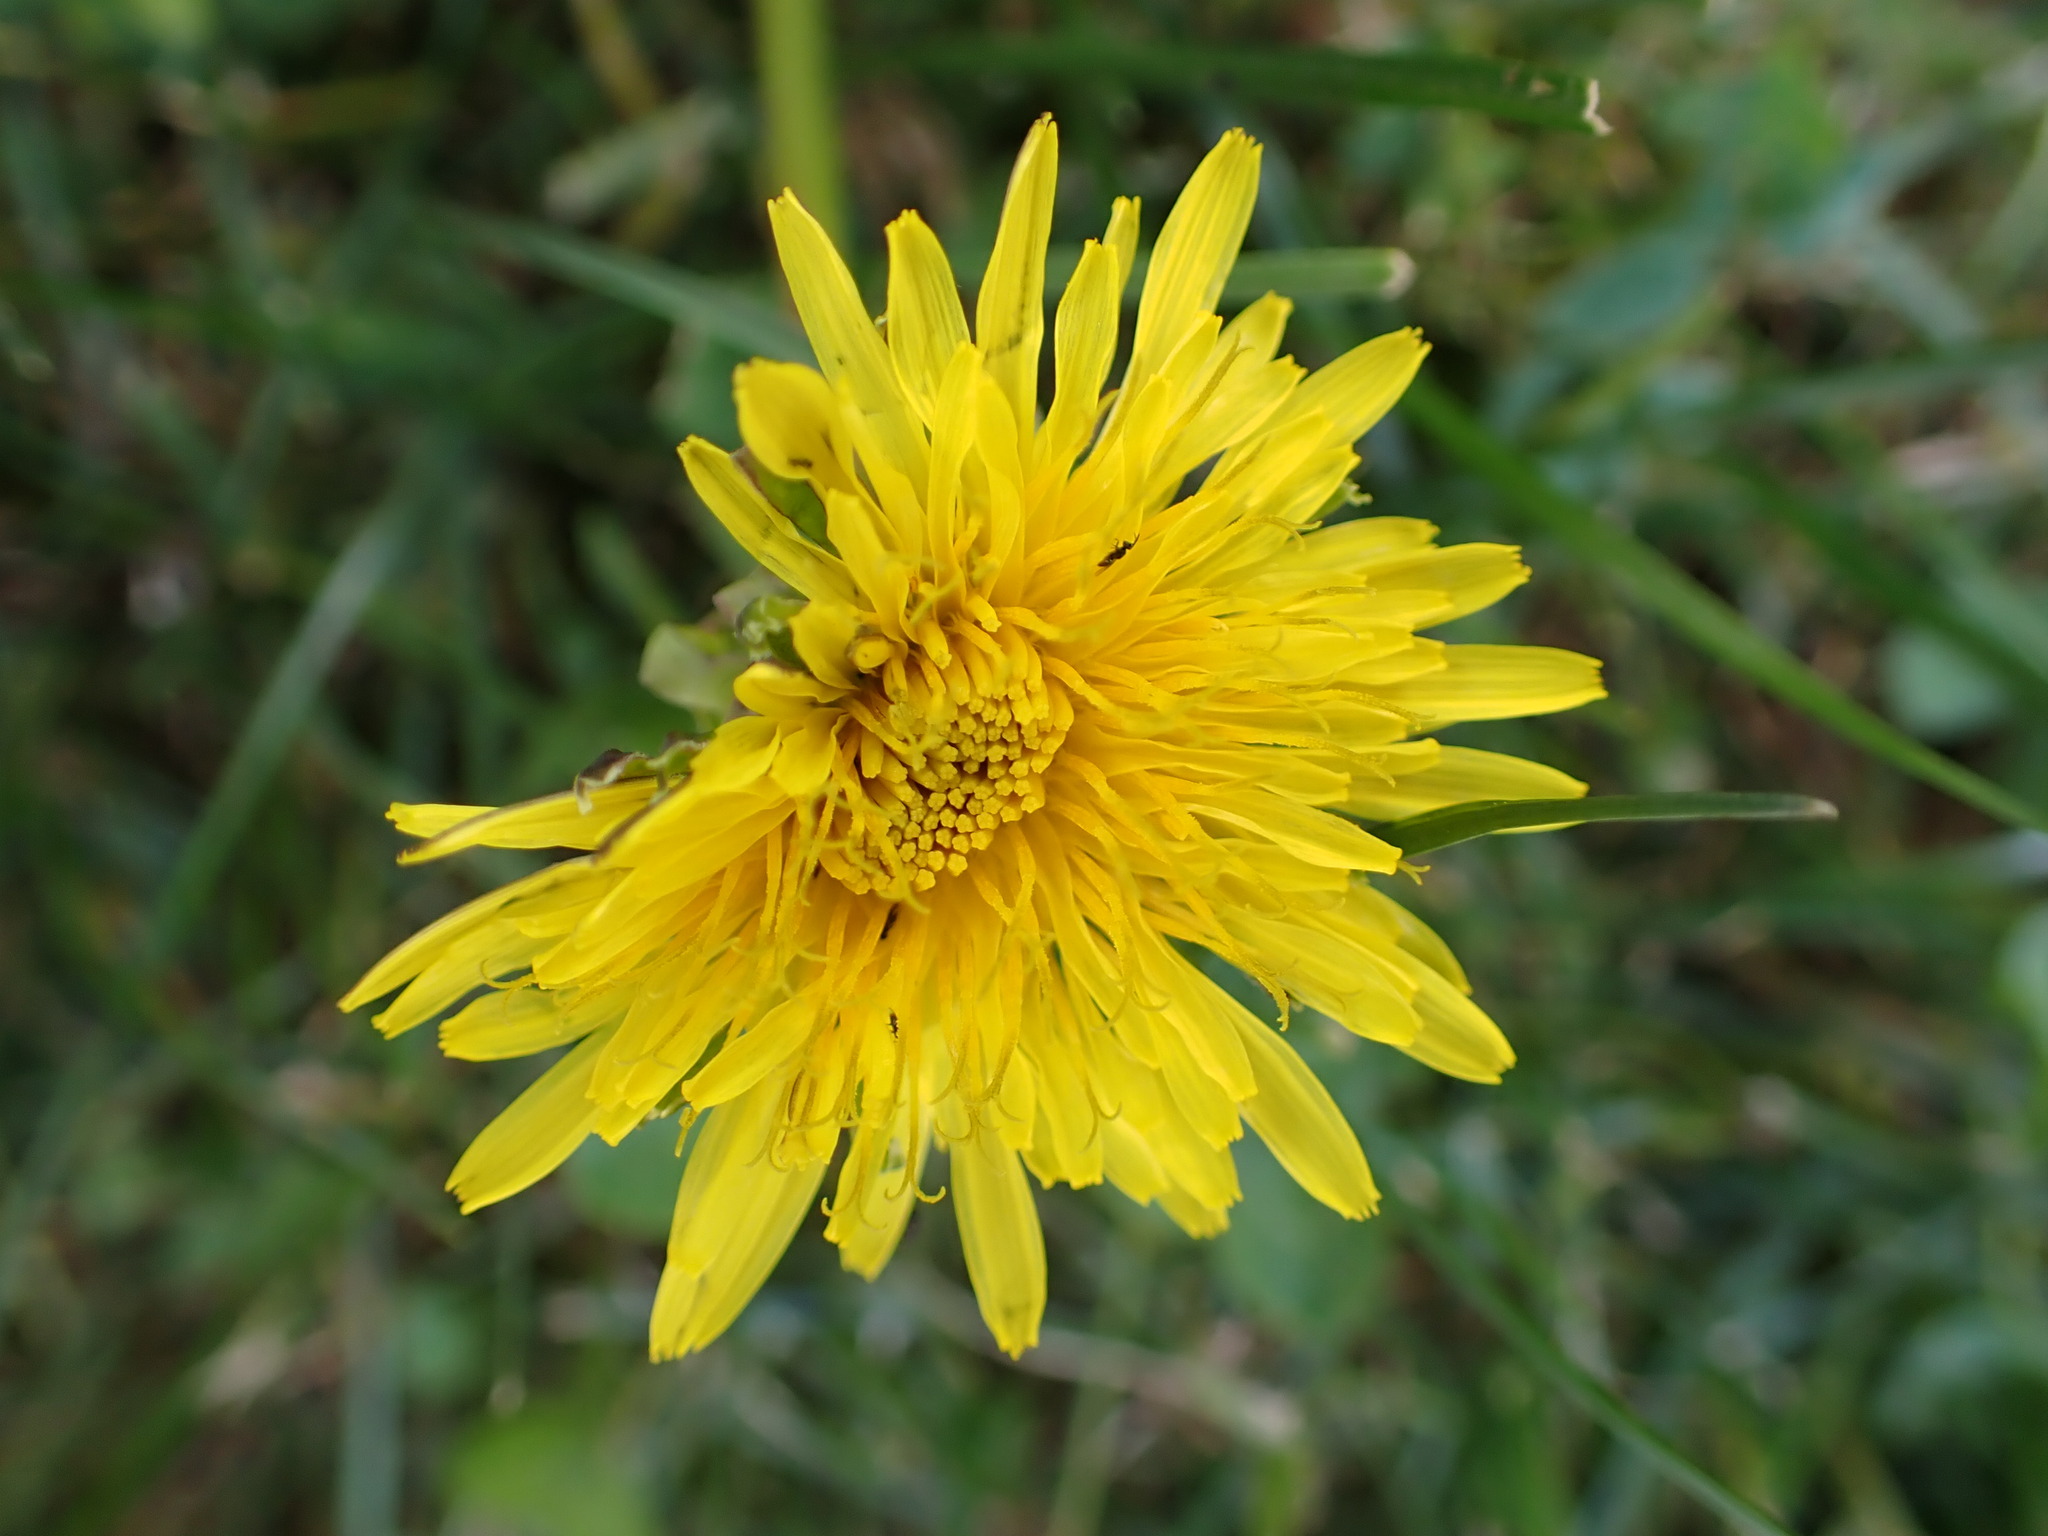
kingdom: Plantae
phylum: Tracheophyta
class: Magnoliopsida
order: Asterales
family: Asteraceae
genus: Taraxacum
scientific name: Taraxacum officinale
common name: Common dandelion
